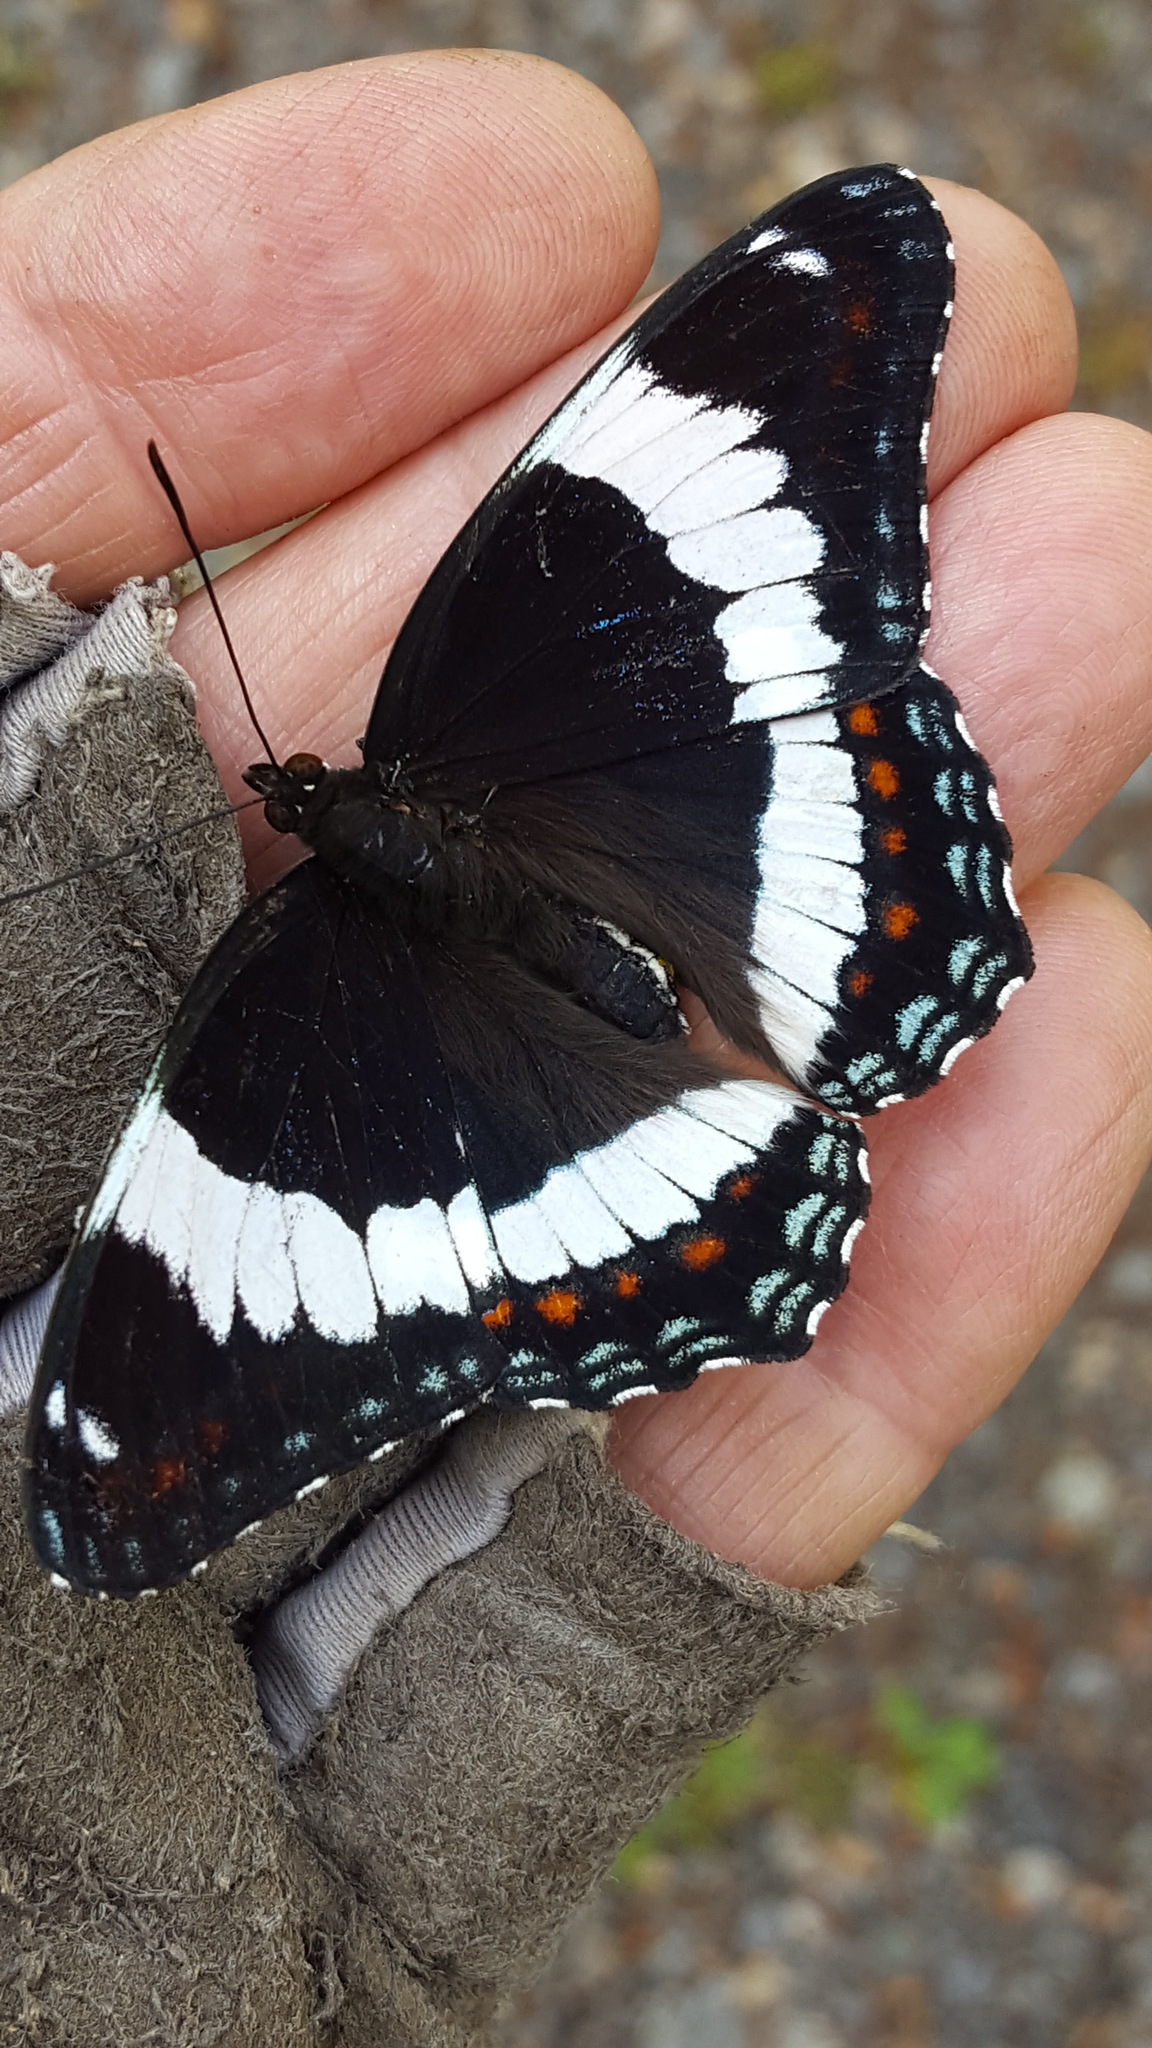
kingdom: Animalia
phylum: Arthropoda
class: Insecta
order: Lepidoptera
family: Nymphalidae
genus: Limenitis
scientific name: Limenitis arthemis
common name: Red-spotted admiral
